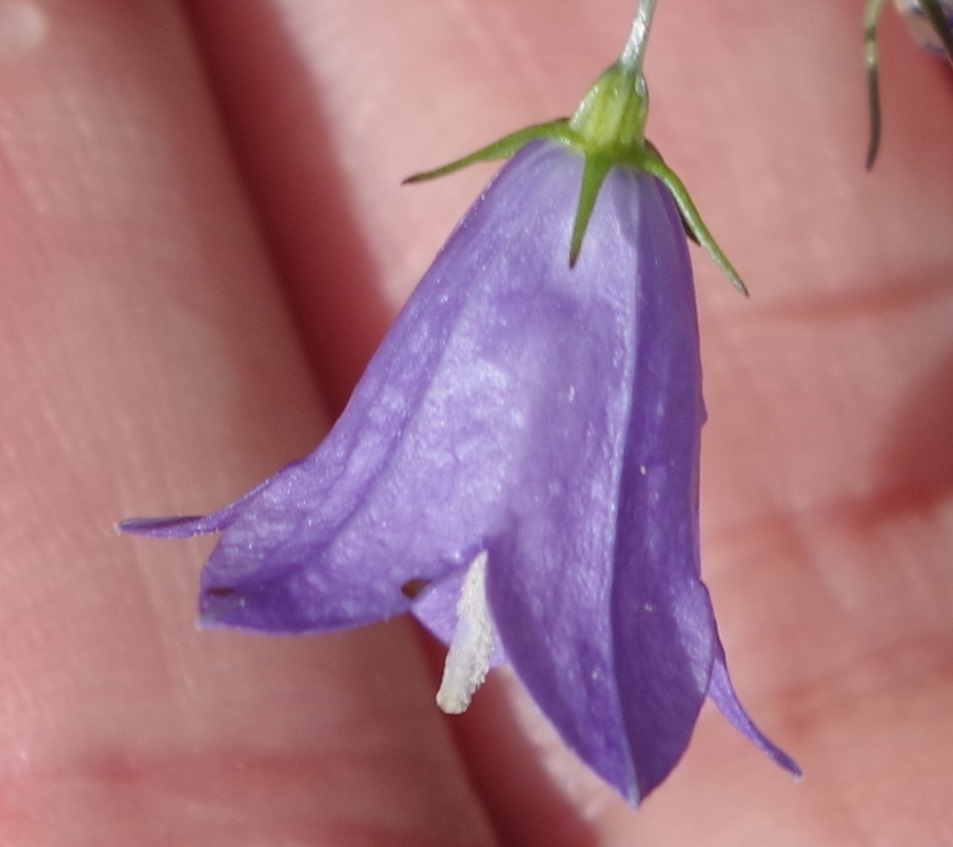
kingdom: Plantae
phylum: Tracheophyta
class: Magnoliopsida
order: Asterales
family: Campanulaceae
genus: Campanula
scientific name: Campanula rotundifolia
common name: Harebell
